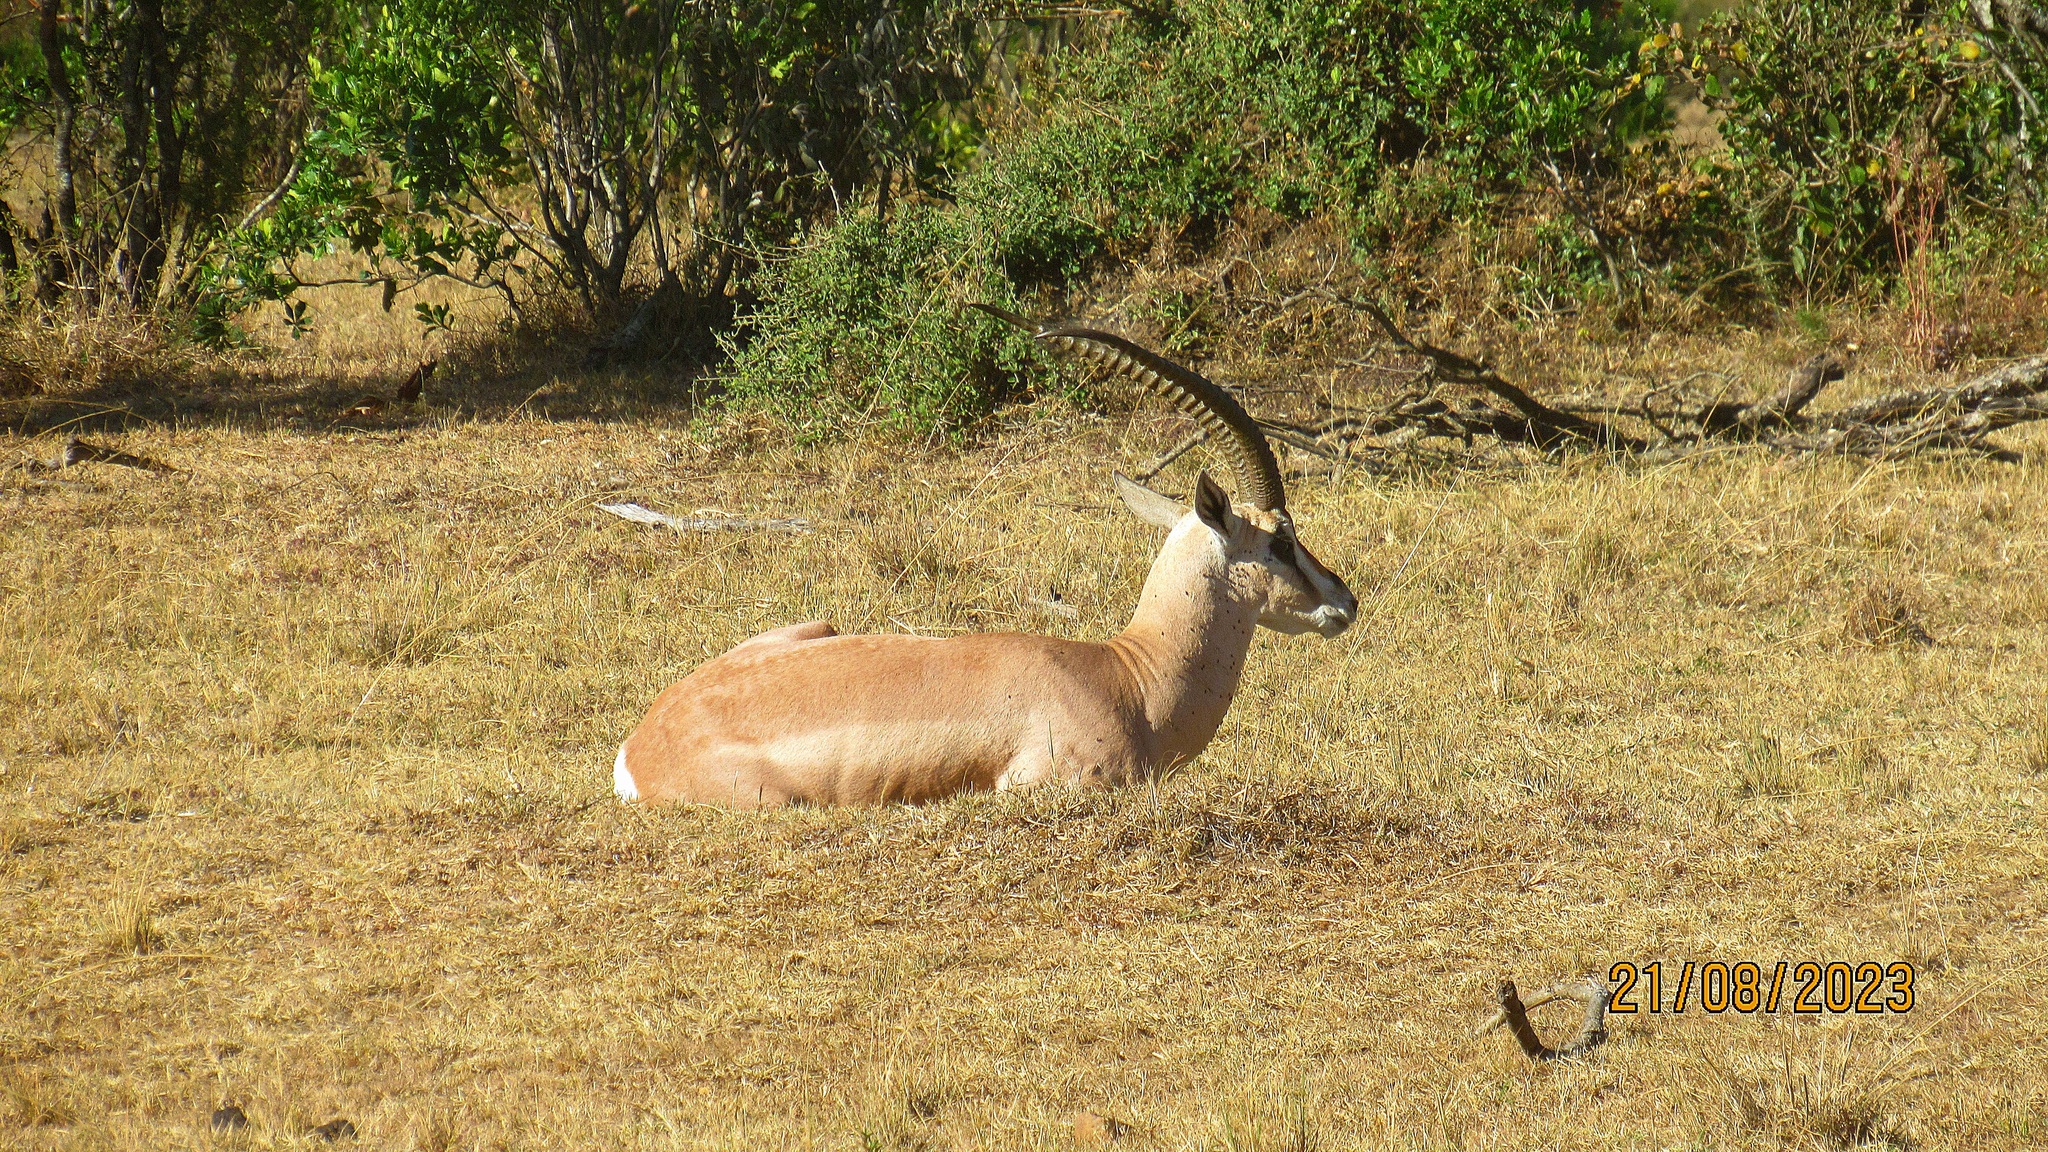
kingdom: Animalia
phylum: Chordata
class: Mammalia
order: Artiodactyla
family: Bovidae
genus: Nanger
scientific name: Nanger granti
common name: Grant's gazelle
